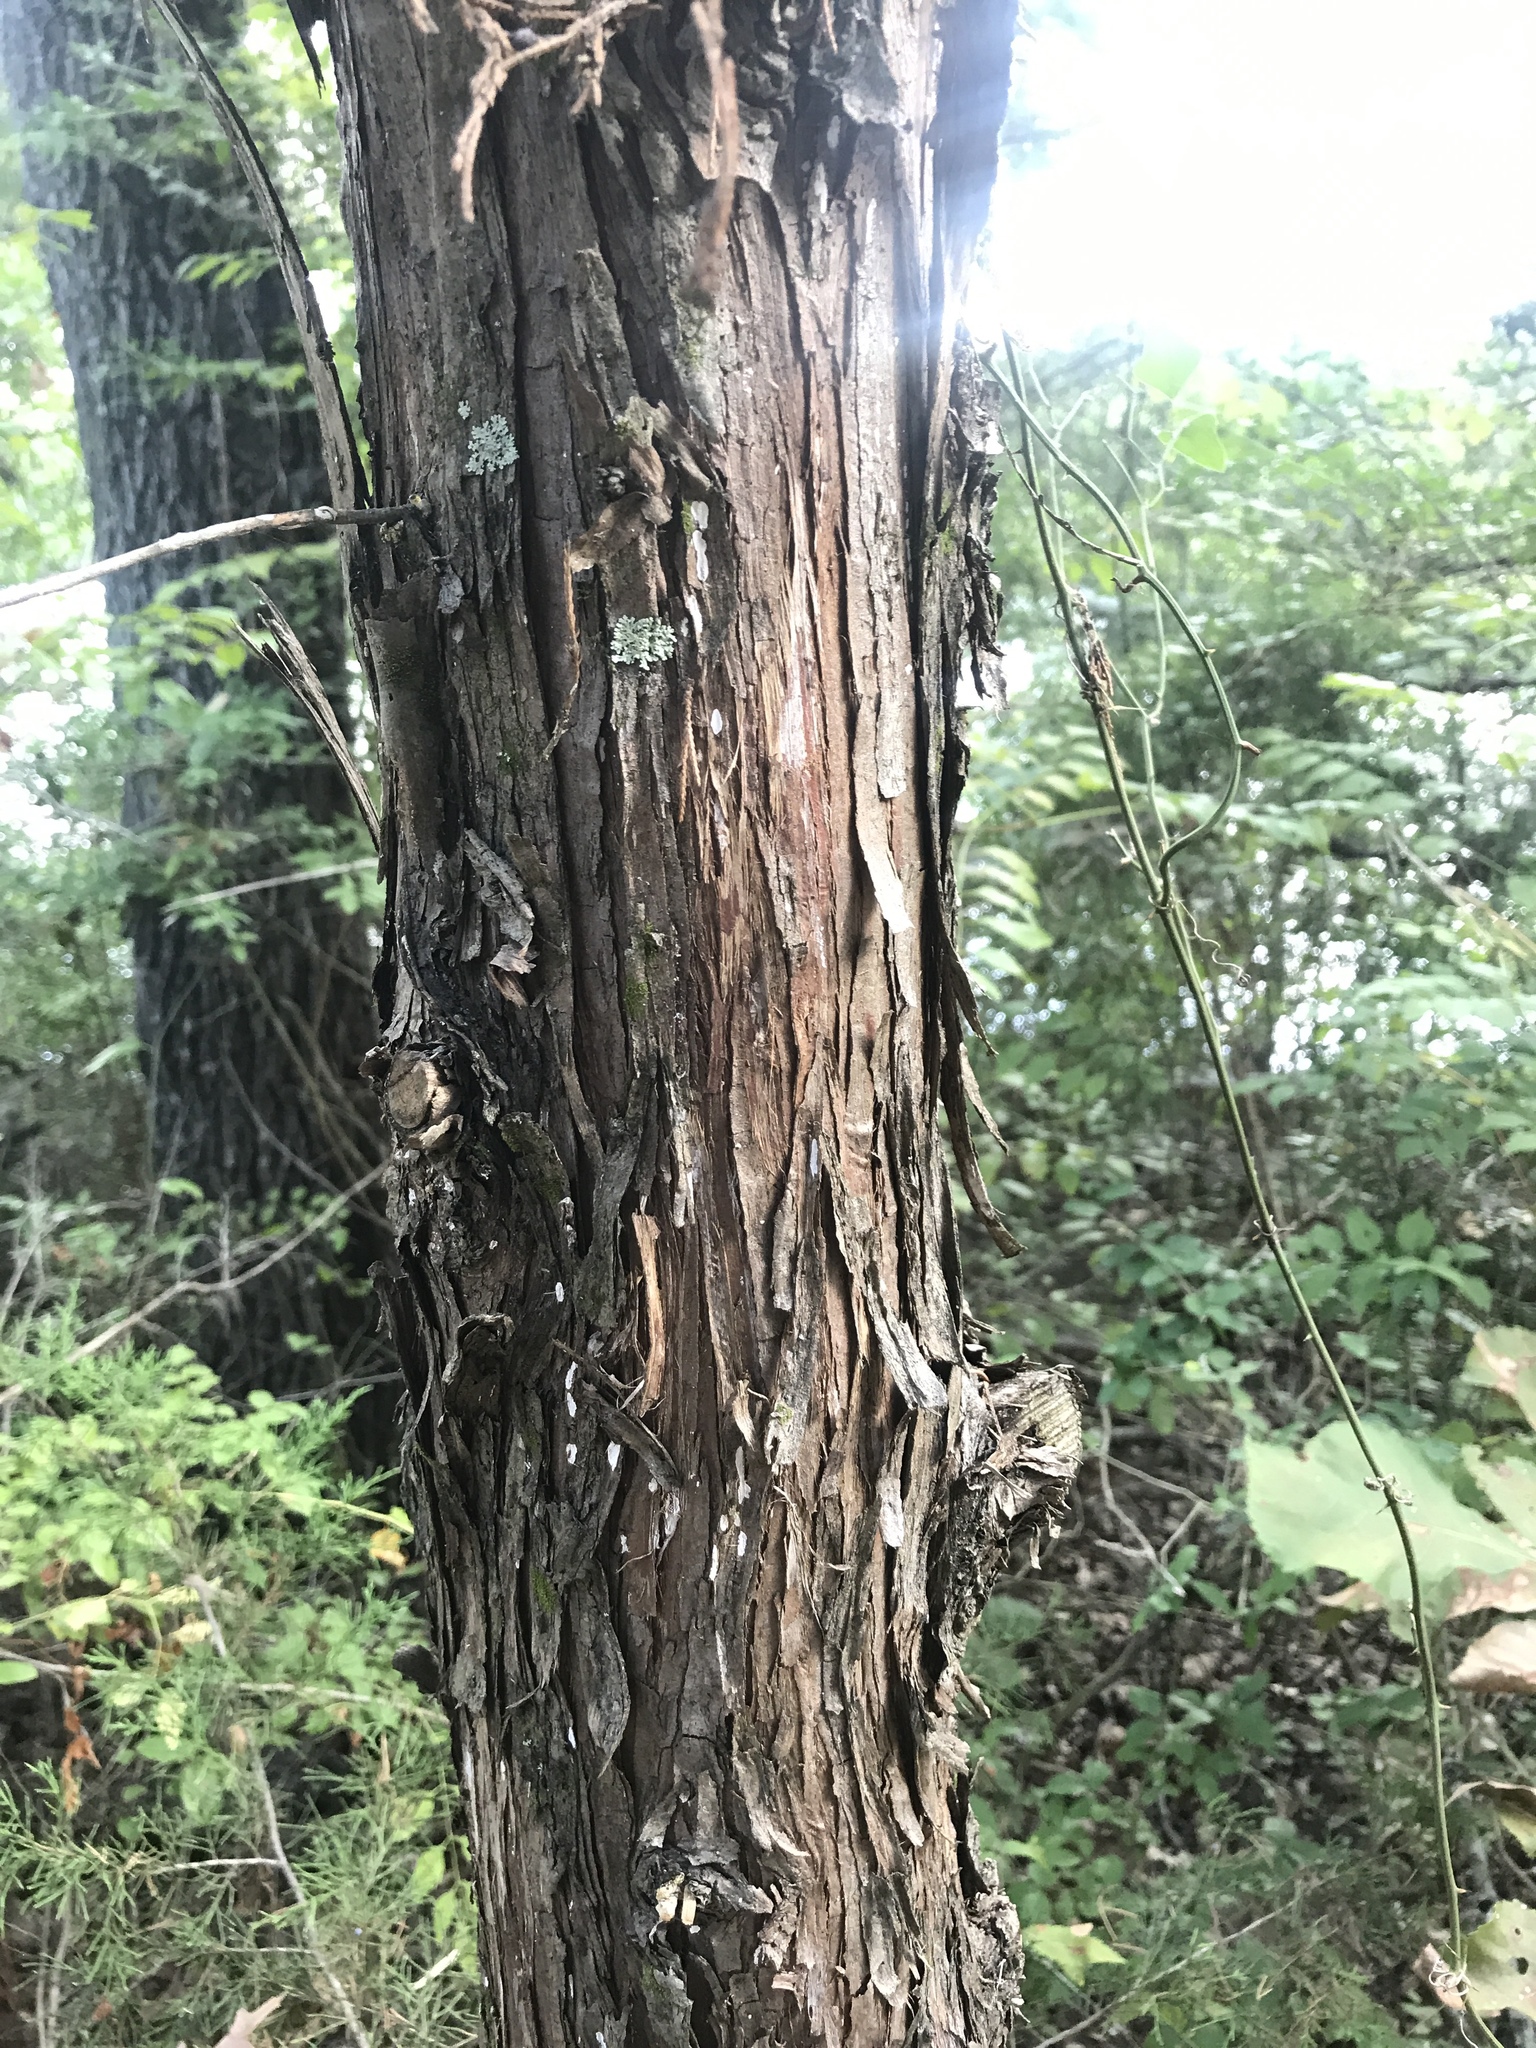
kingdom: Plantae
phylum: Tracheophyta
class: Pinopsida
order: Pinales
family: Cupressaceae
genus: Juniperus
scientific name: Juniperus virginiana
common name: Red juniper
